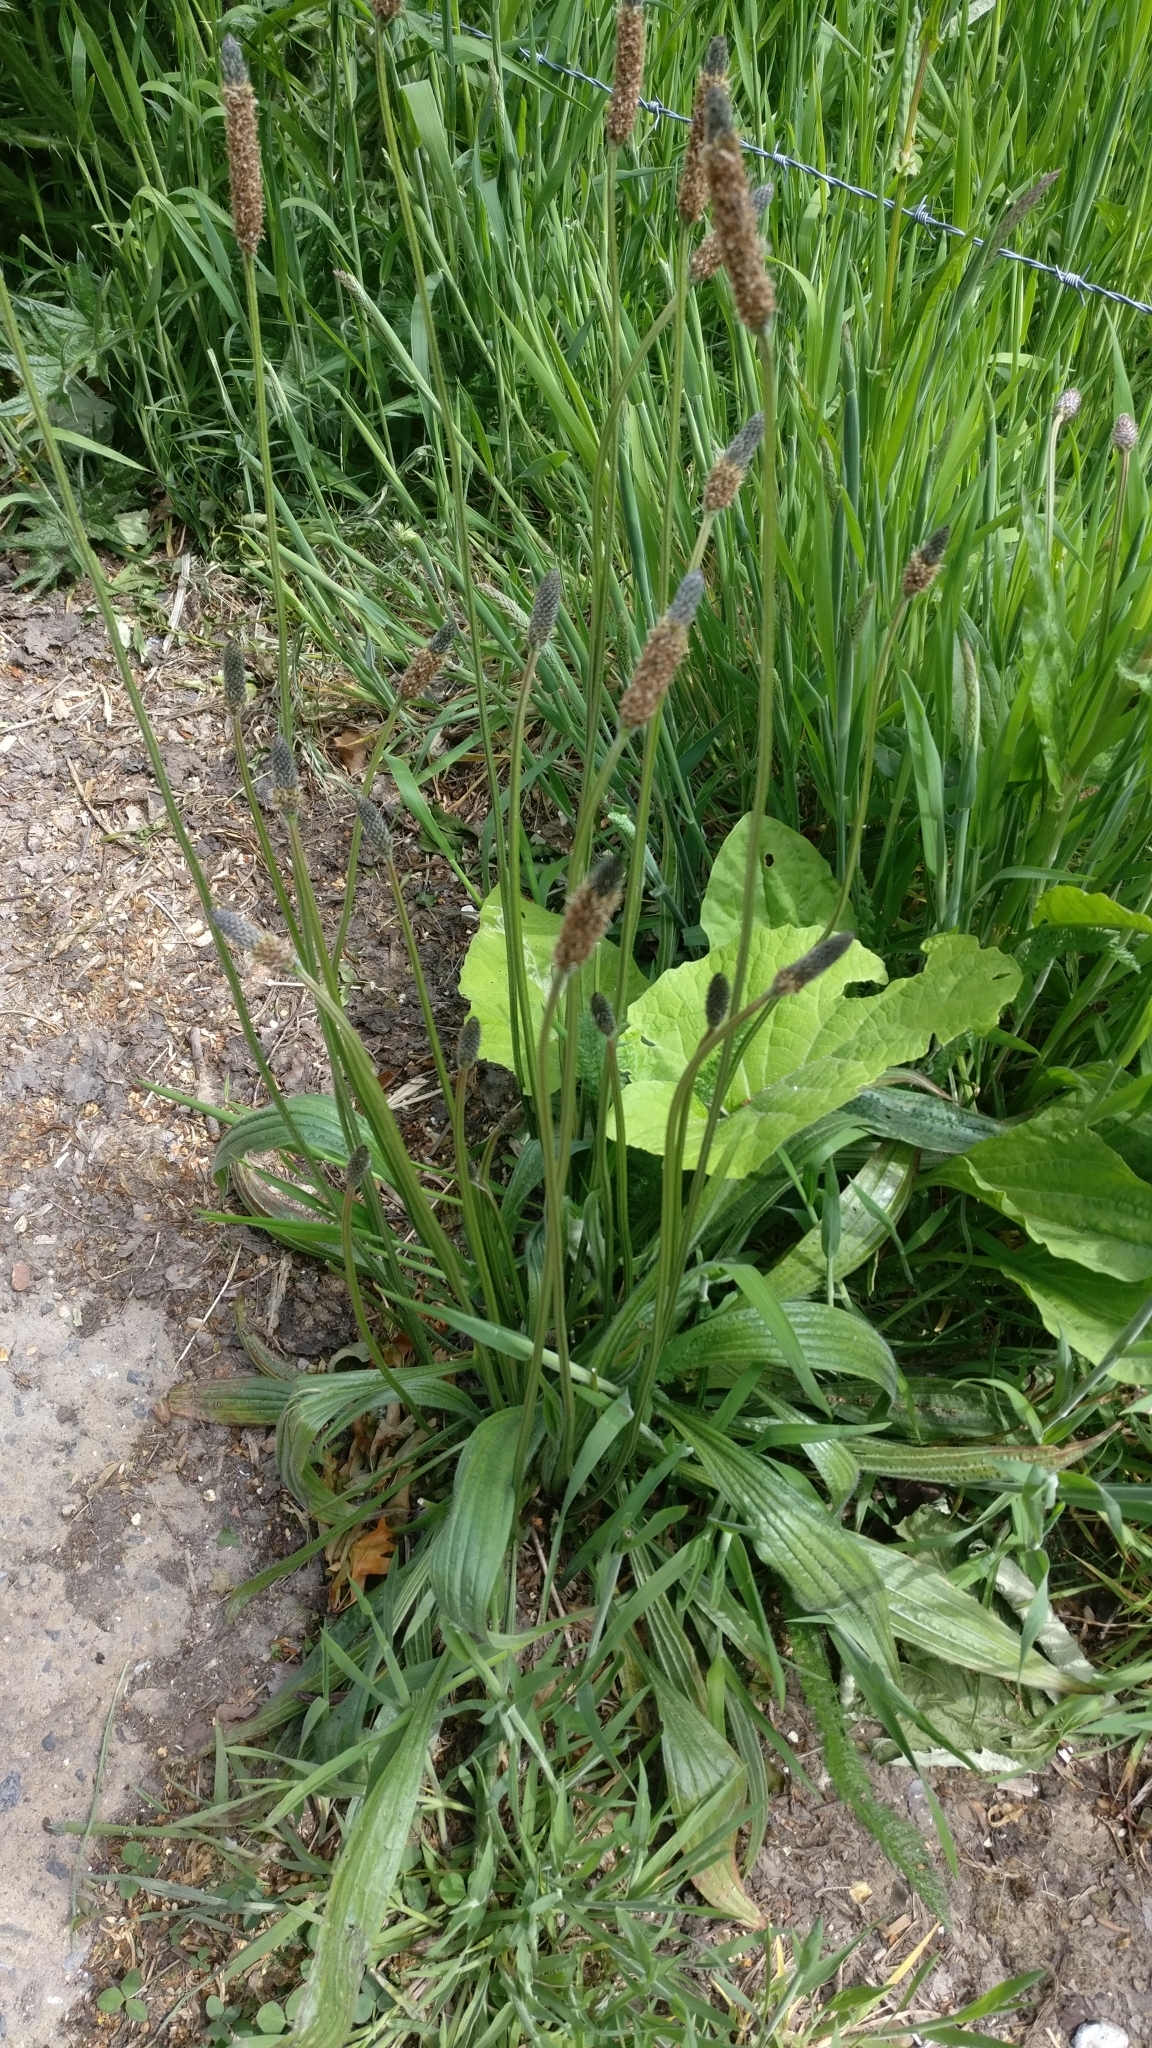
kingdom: Plantae
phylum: Tracheophyta
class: Magnoliopsida
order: Lamiales
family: Plantaginaceae
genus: Plantago
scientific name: Plantago lanceolata
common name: Ribwort plantain
